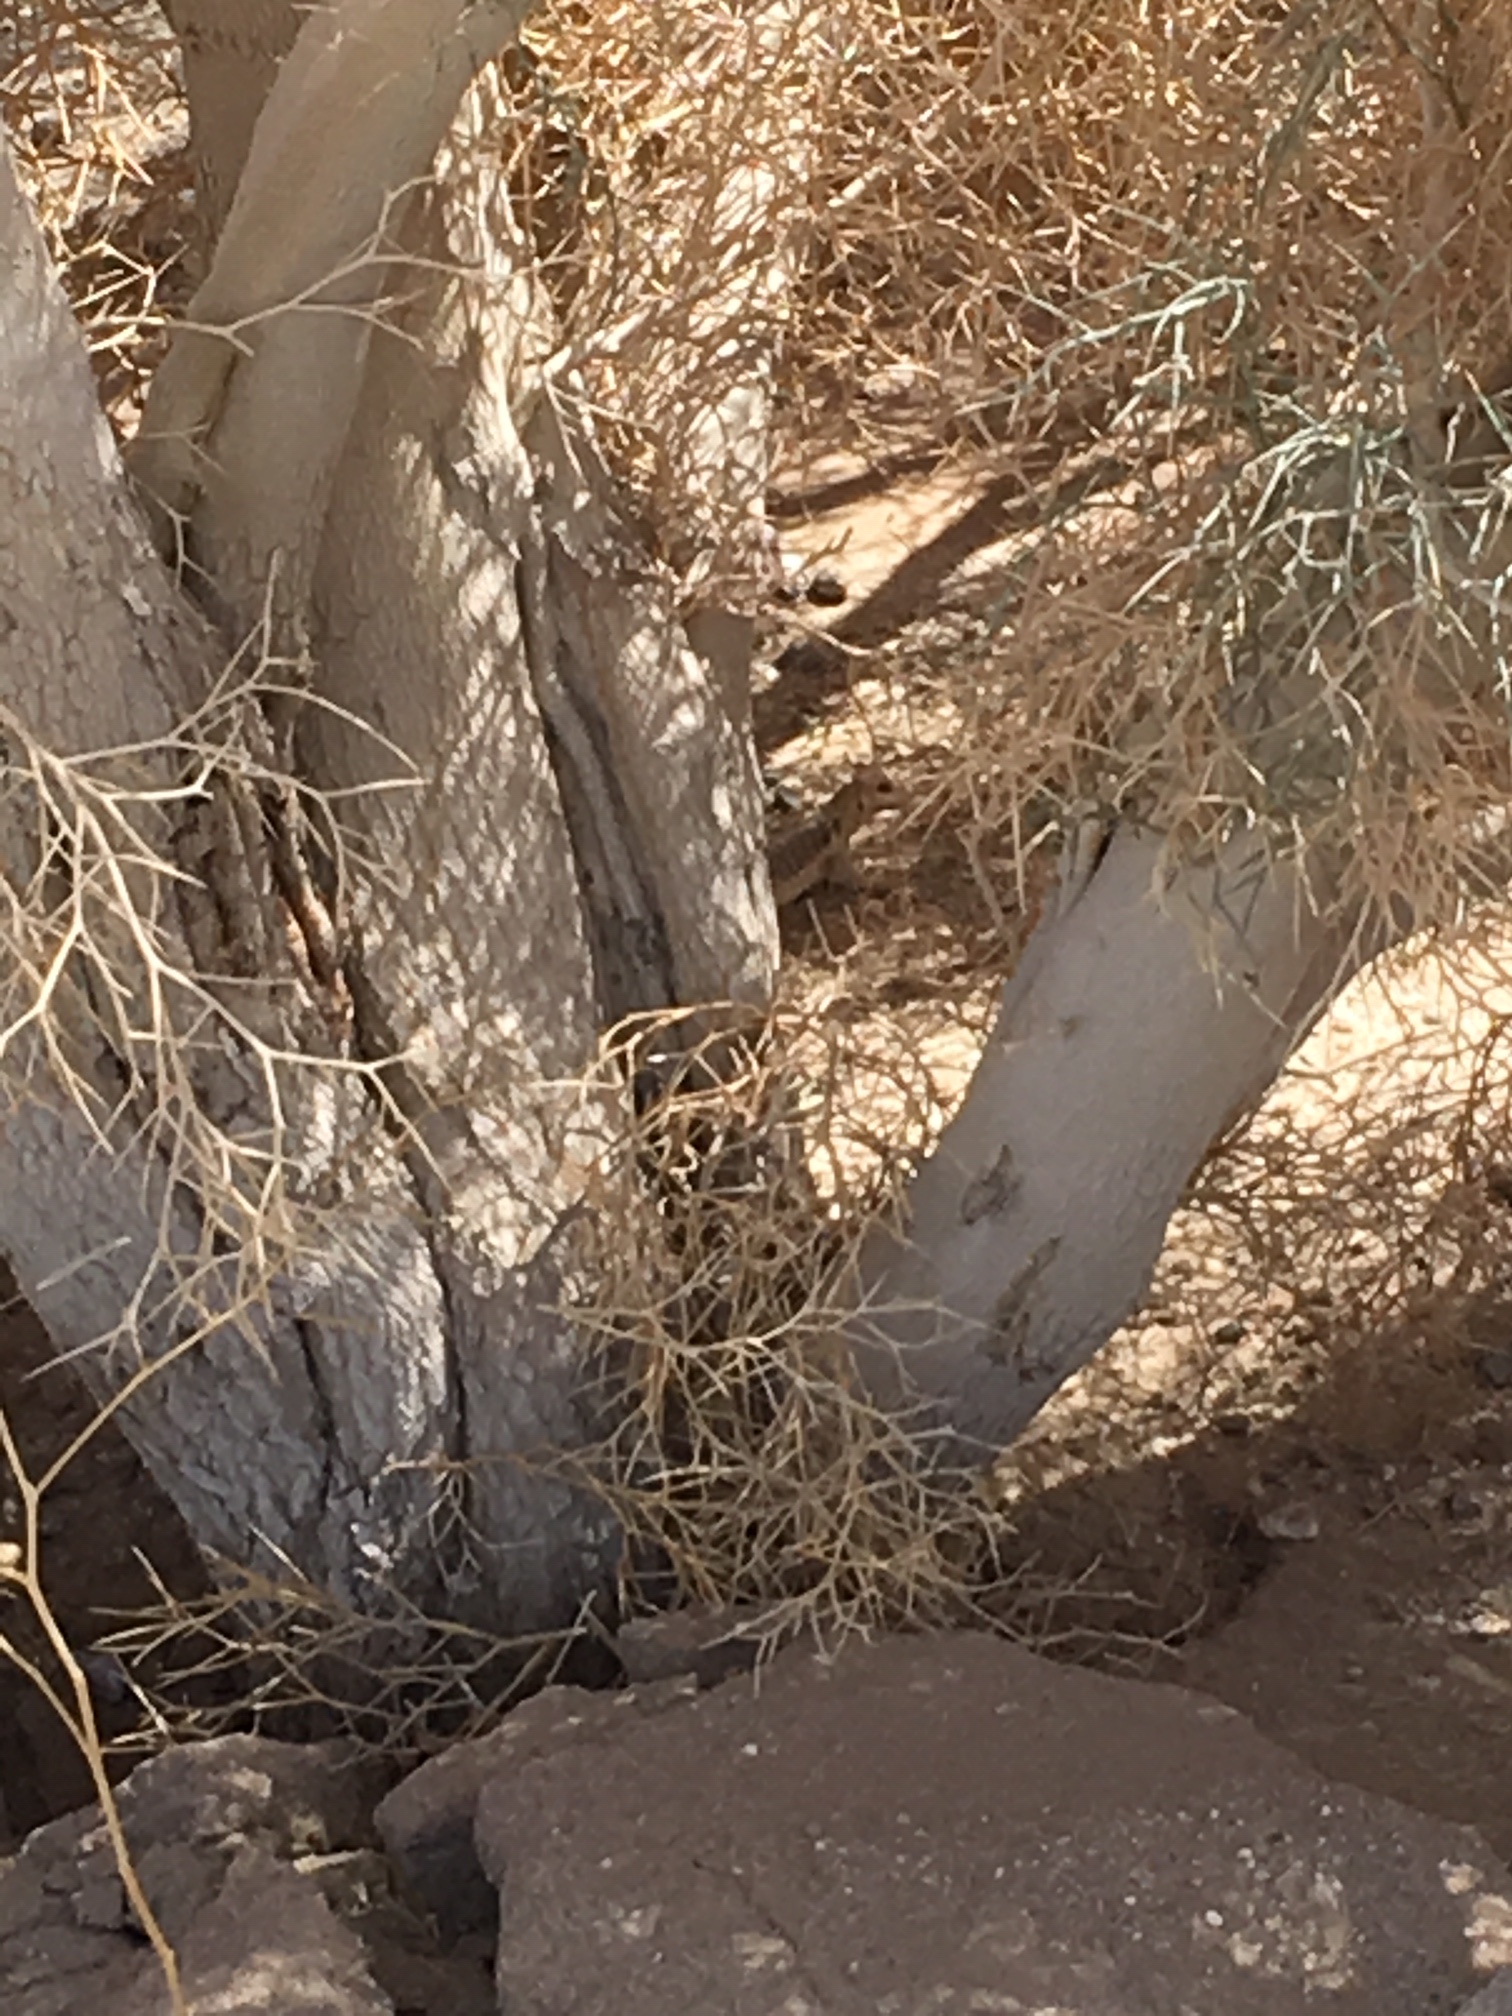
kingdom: Animalia
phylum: Chordata
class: Squamata
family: Iguanidae
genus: Dipsosaurus
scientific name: Dipsosaurus dorsalis
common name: Desert iguana
